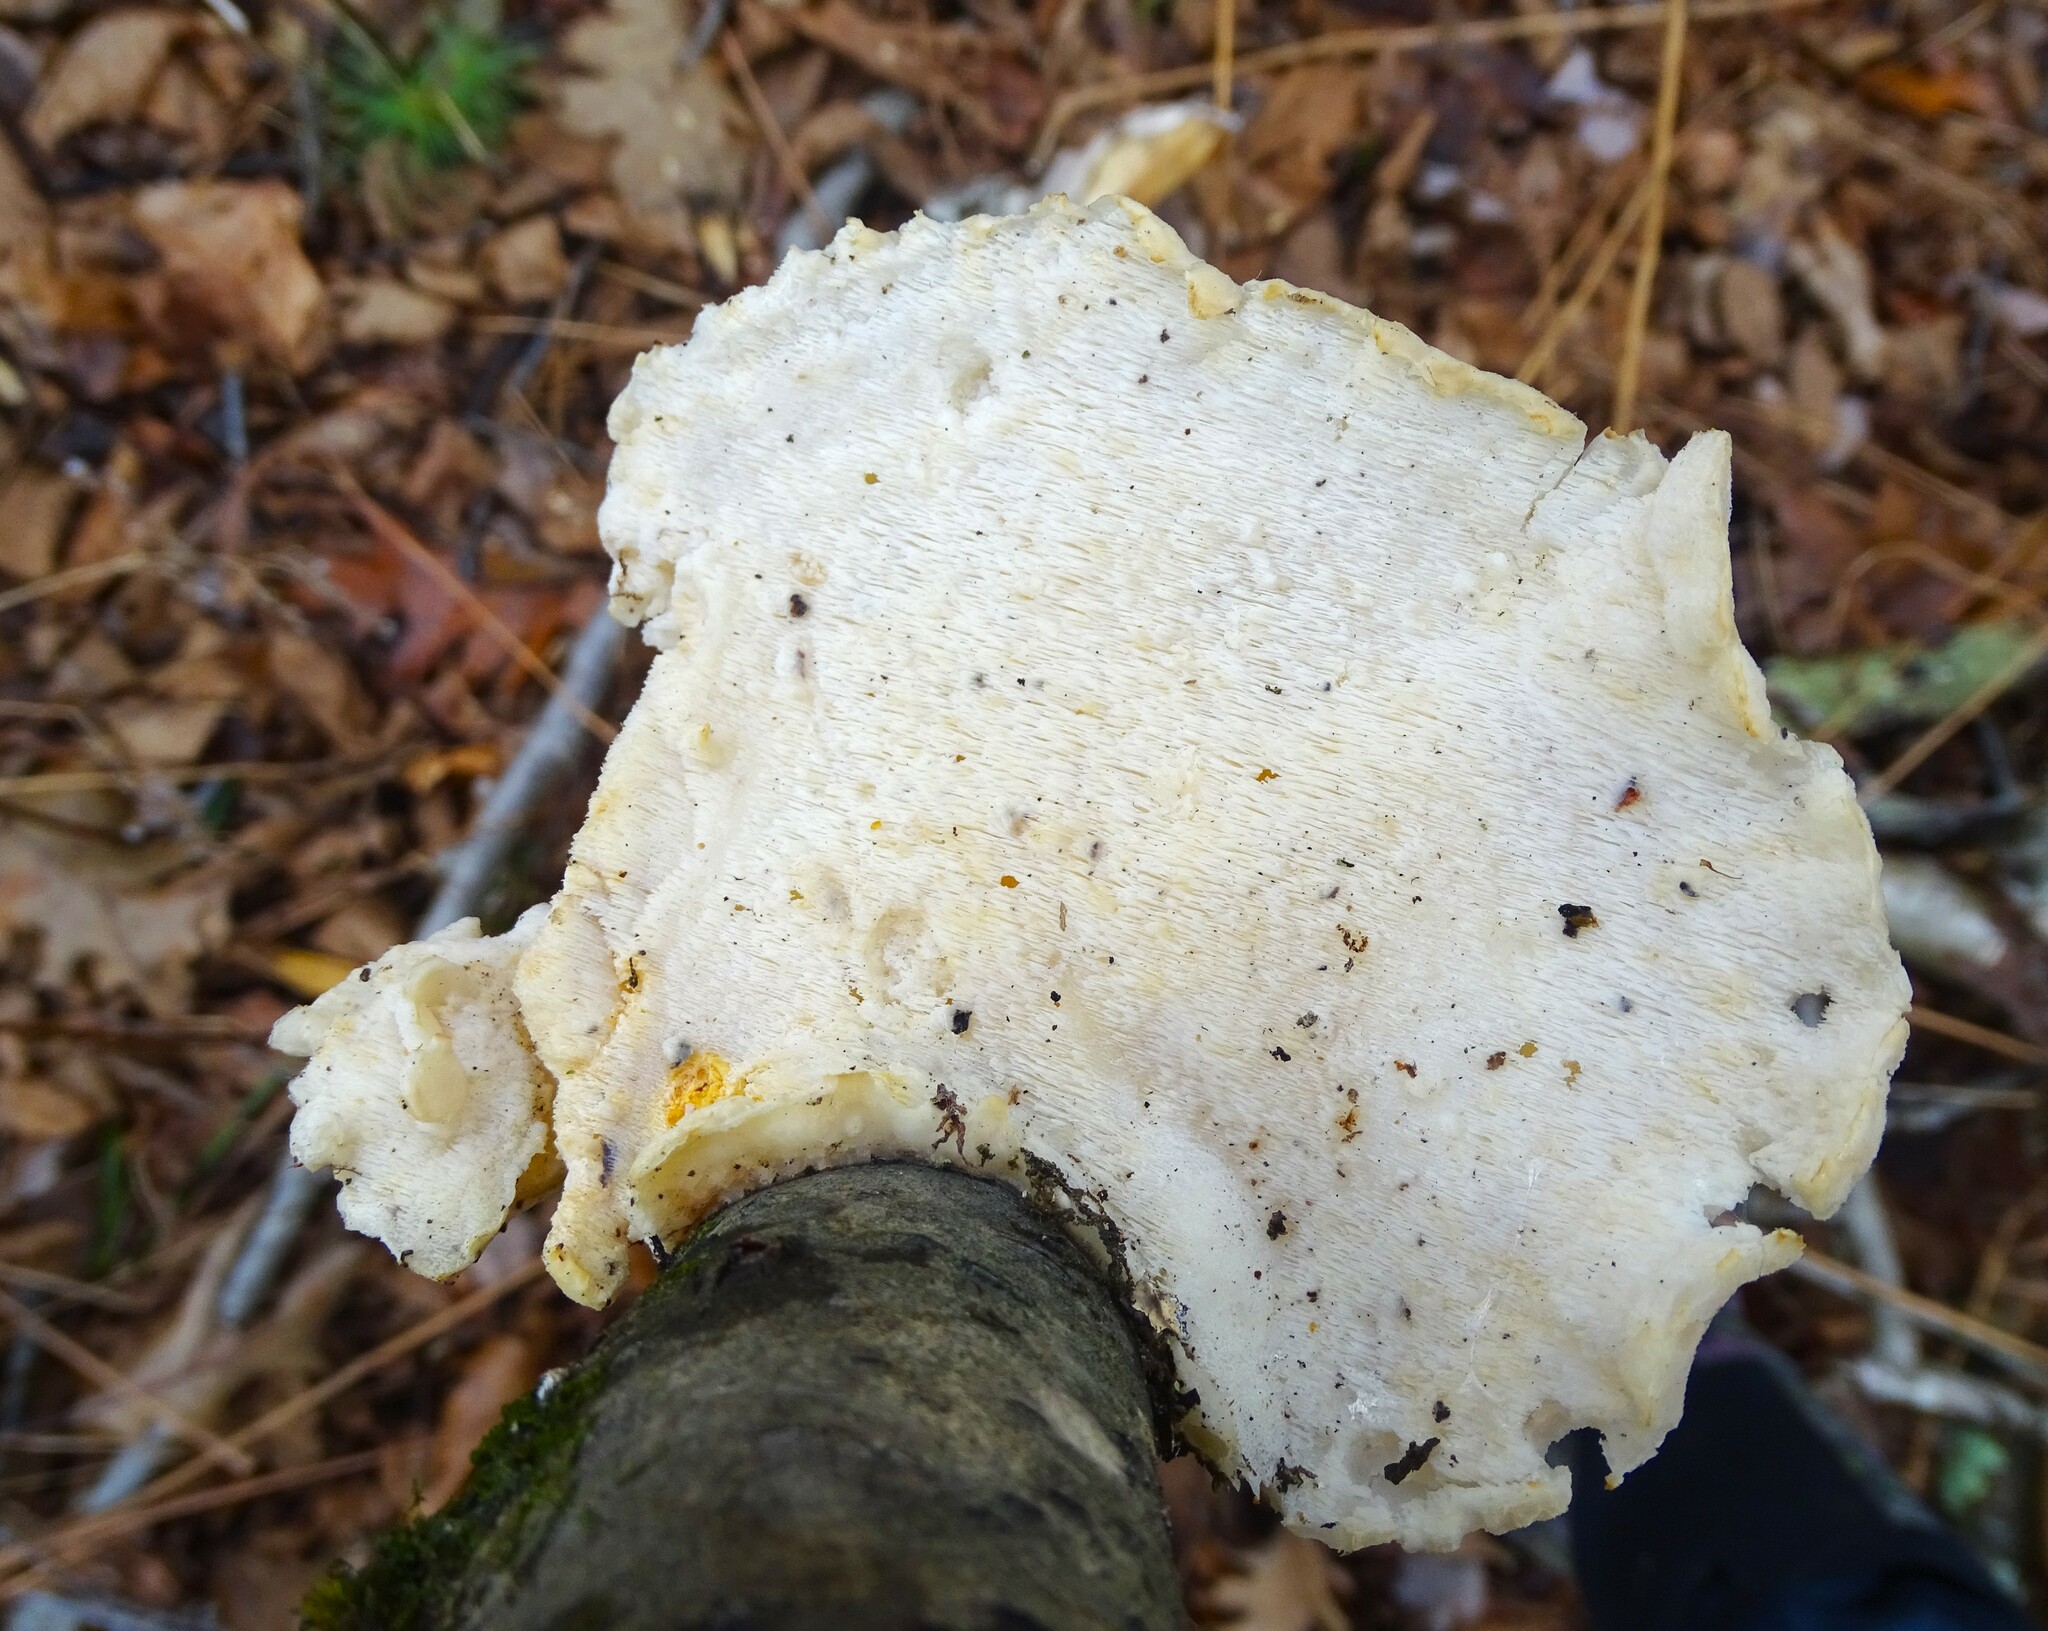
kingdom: Fungi
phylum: Basidiomycota
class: Agaricomycetes
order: Polyporales
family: Incrustoporiaceae
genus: Tyromyces
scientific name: Tyromyces chioneus
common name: White cheese polypore
